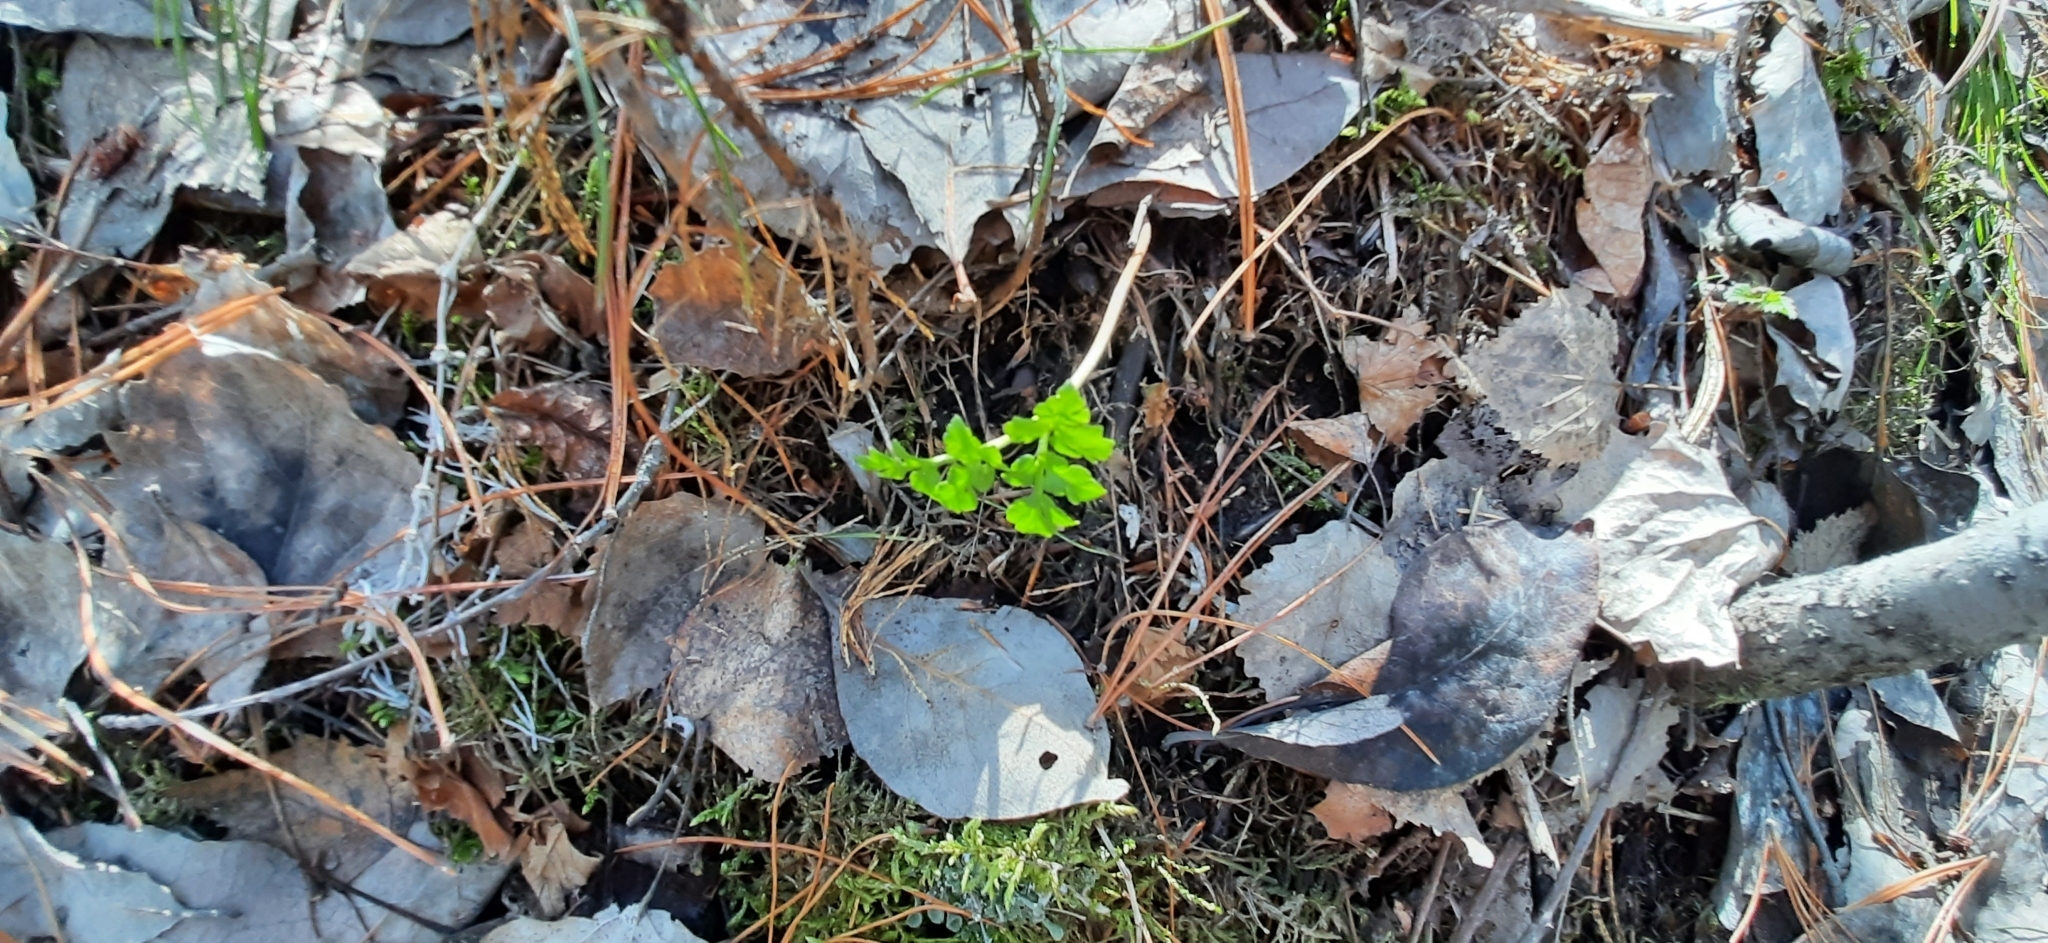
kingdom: Plantae
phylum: Tracheophyta
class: Polypodiopsida
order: Ophioglossales
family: Ophioglossaceae
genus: Sceptridium
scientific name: Sceptridium multifidum
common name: Leathery grape fern
